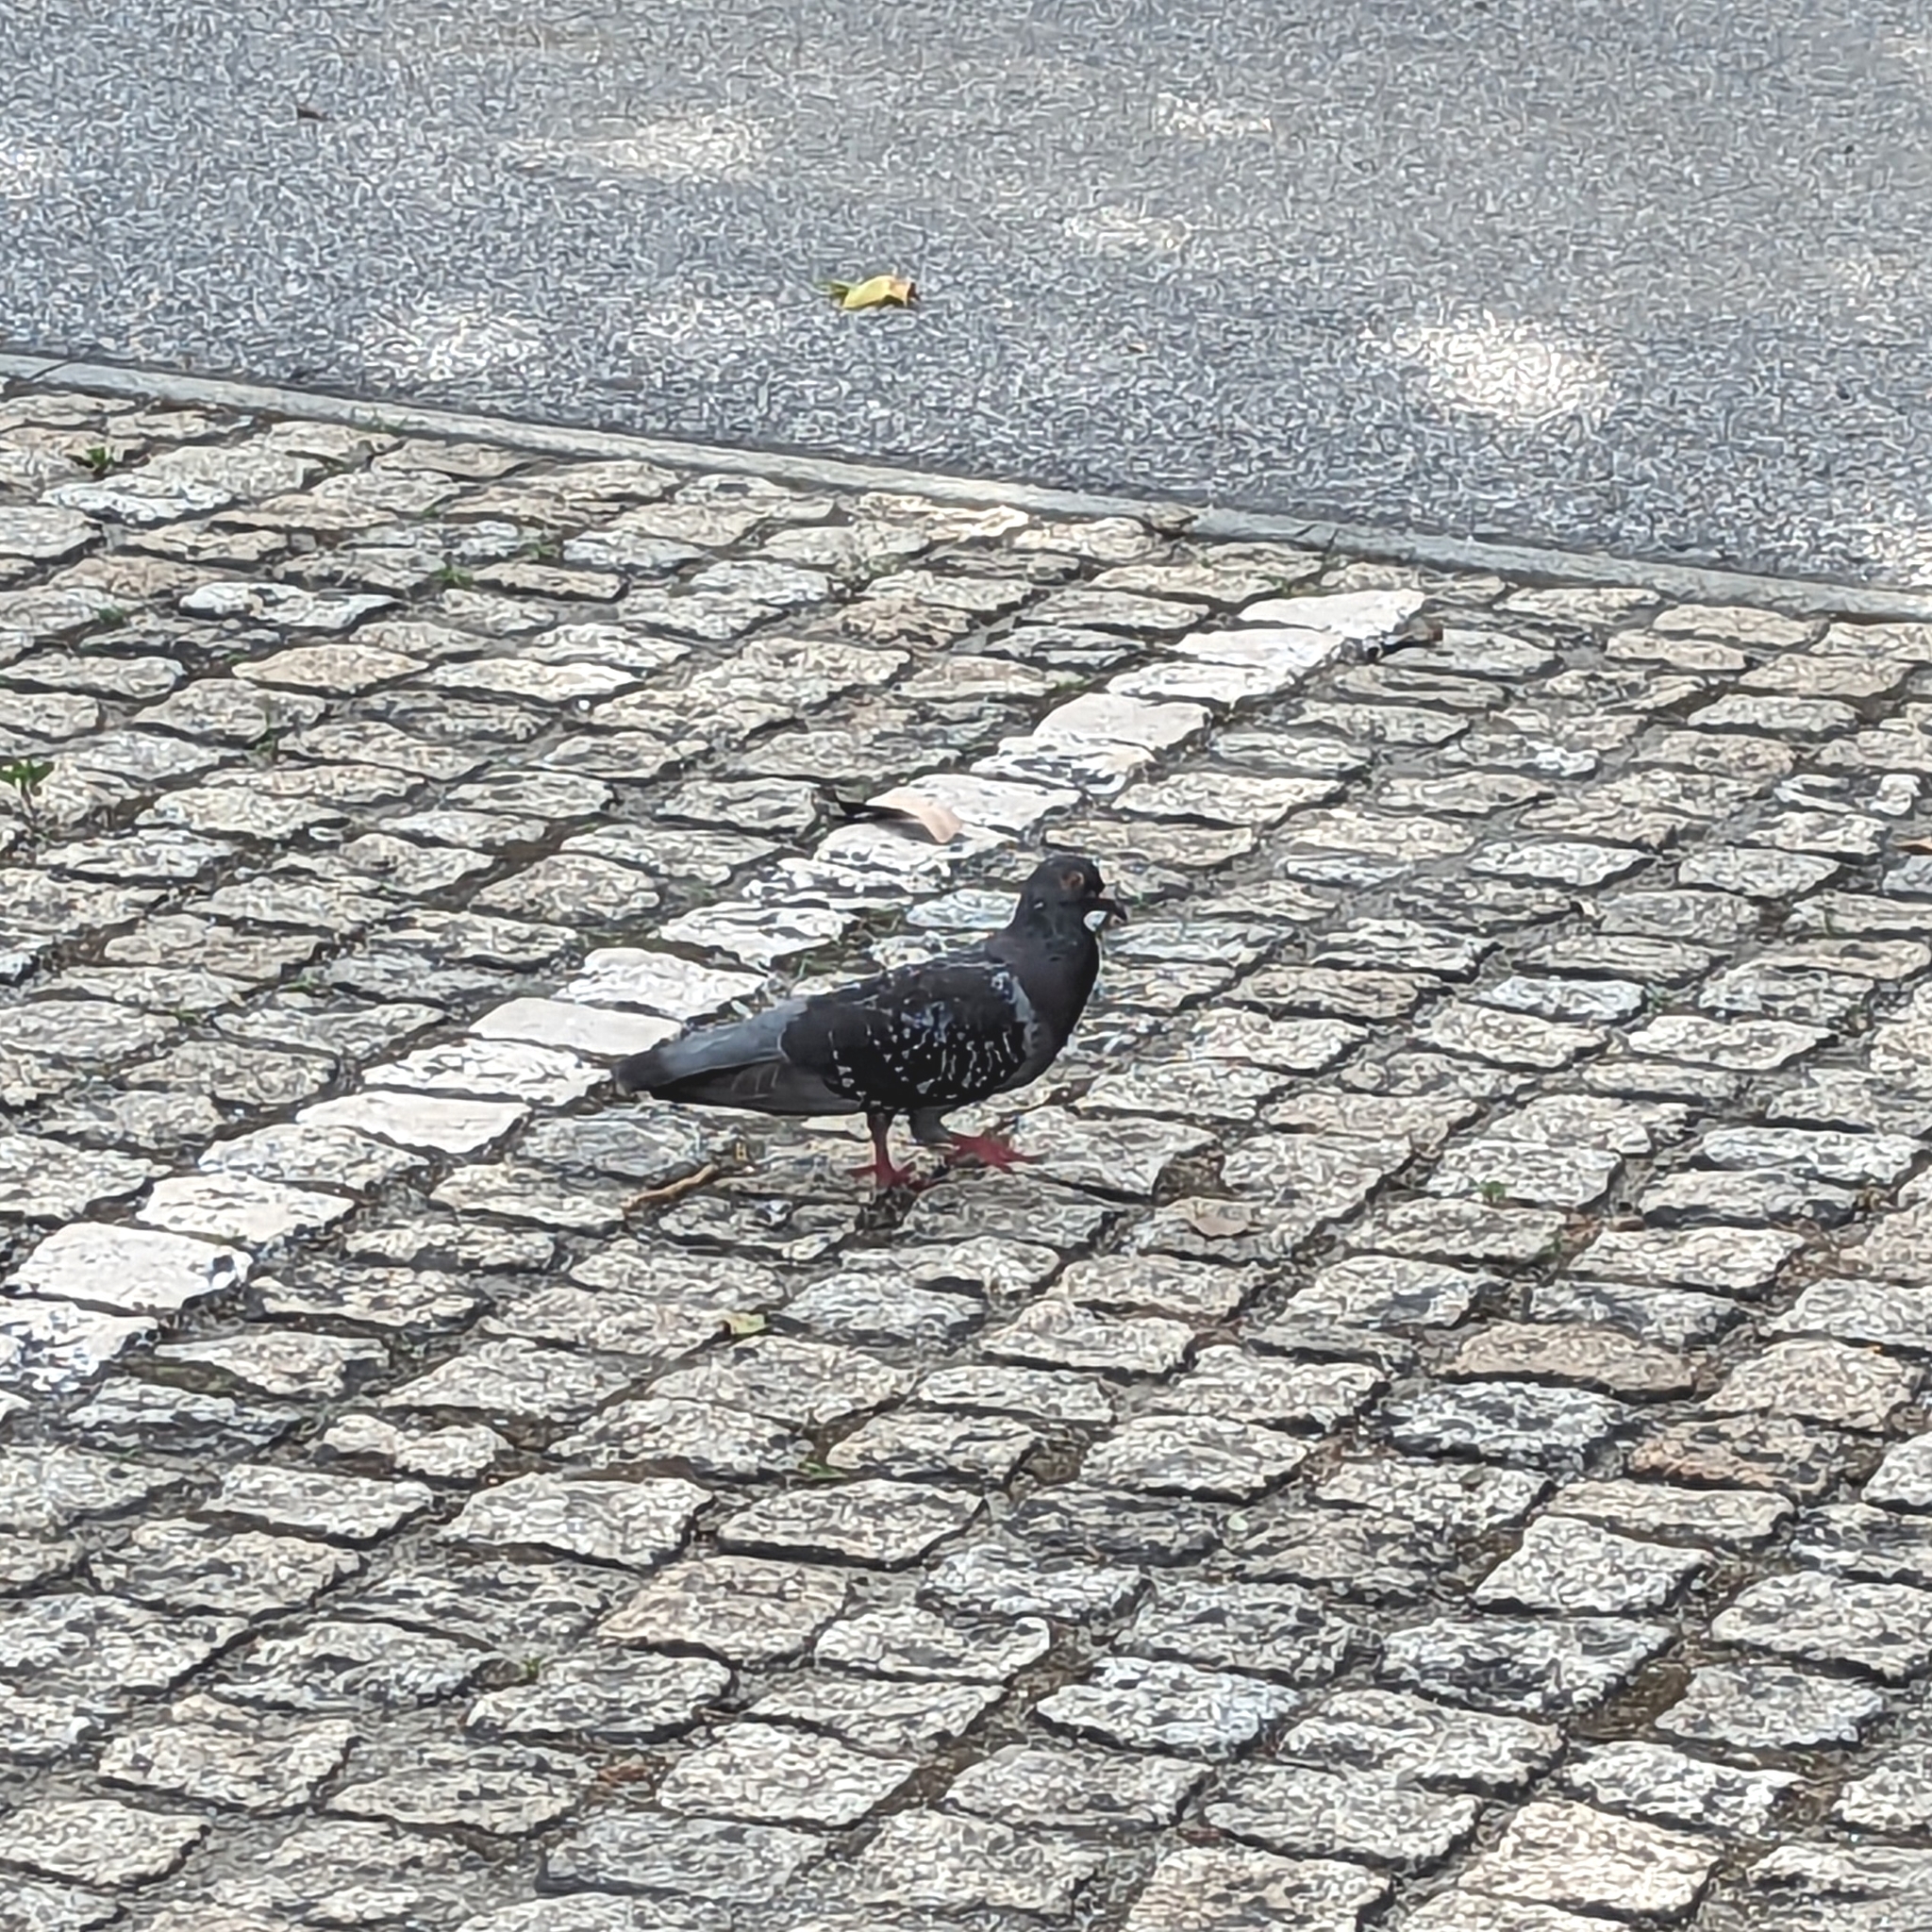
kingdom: Animalia
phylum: Chordata
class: Aves
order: Columbiformes
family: Columbidae
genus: Columba
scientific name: Columba livia
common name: Rock pigeon
